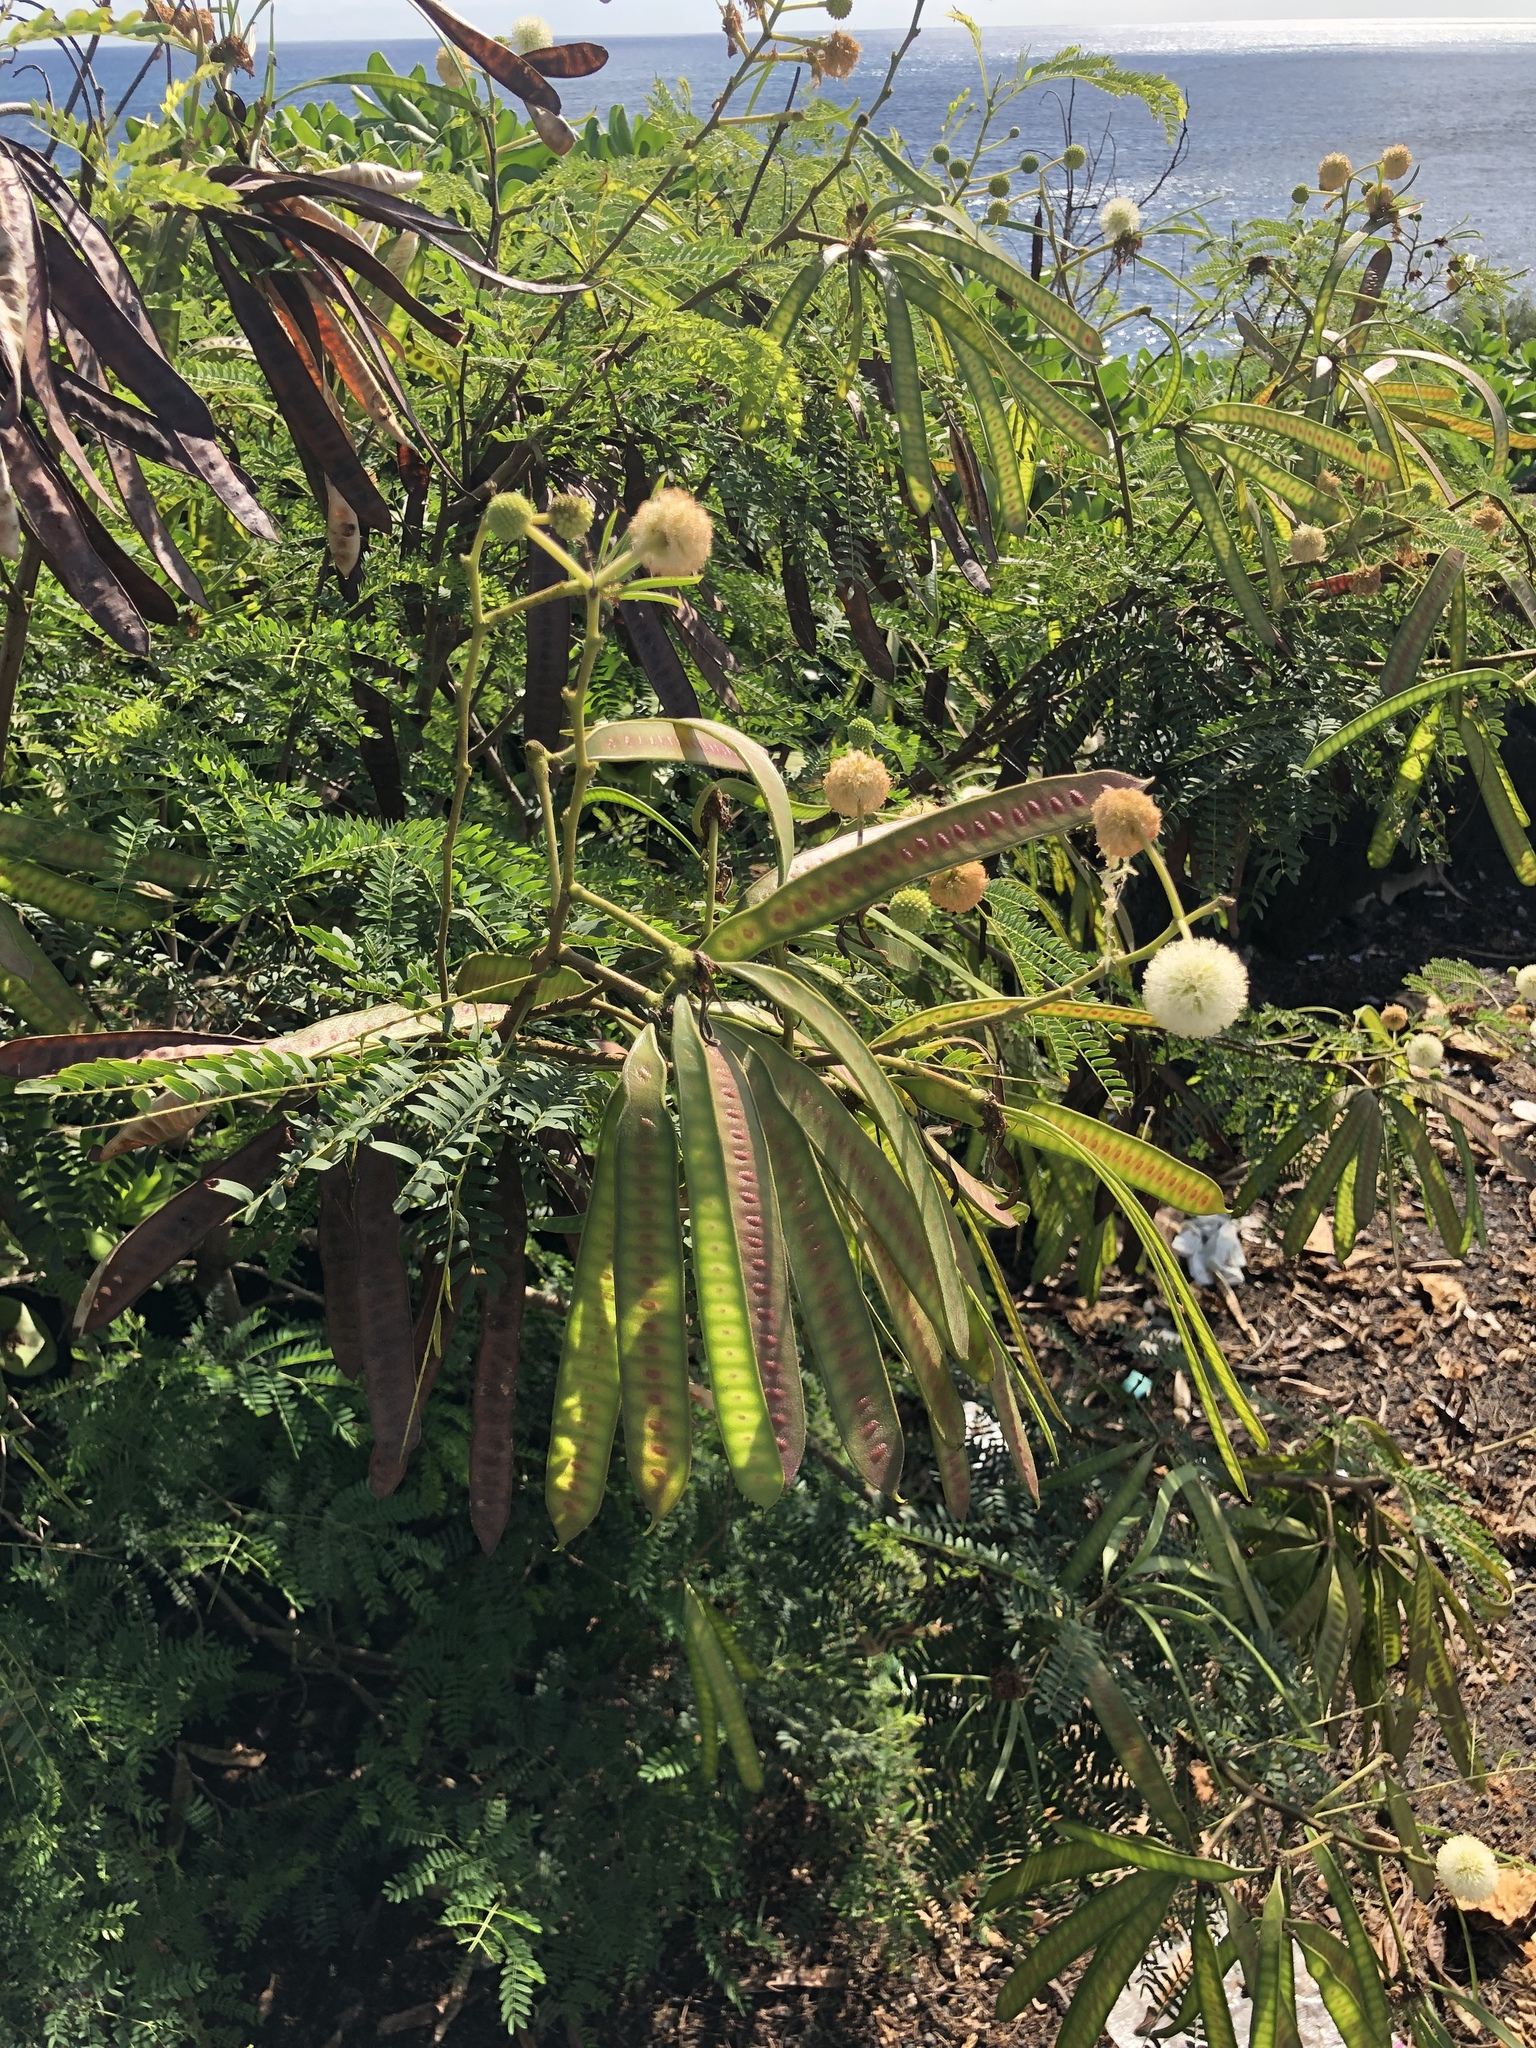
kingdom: Plantae
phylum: Tracheophyta
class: Magnoliopsida
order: Fabales
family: Fabaceae
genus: Leucaena
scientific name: Leucaena leucocephala
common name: White leadtree
